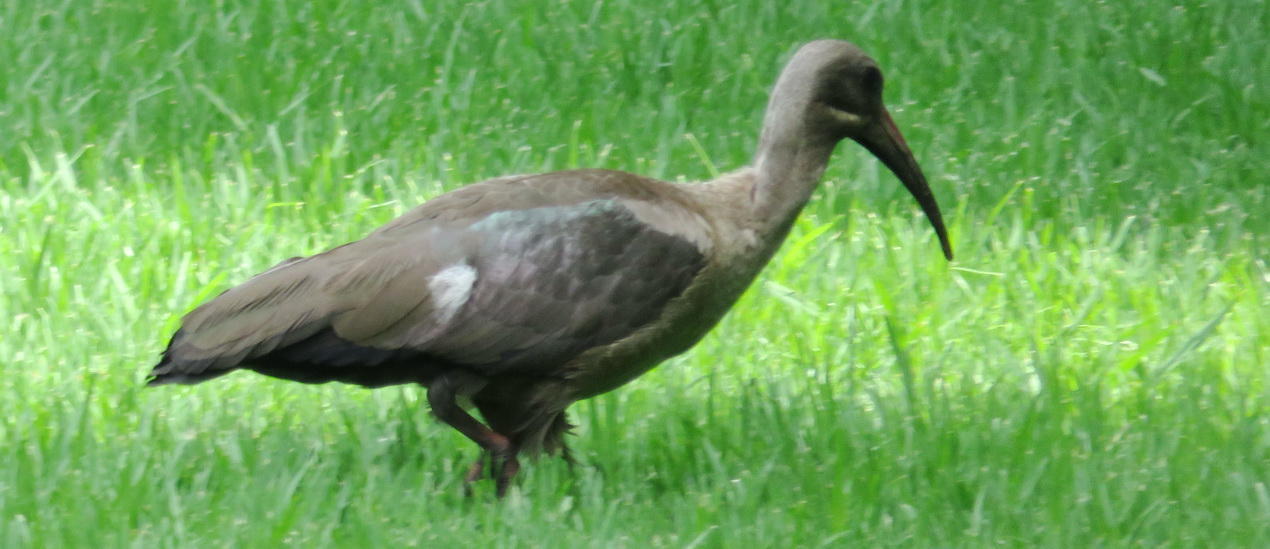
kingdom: Animalia
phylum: Chordata
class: Aves
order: Pelecaniformes
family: Threskiornithidae
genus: Bostrychia
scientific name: Bostrychia hagedash
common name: Hadada ibis
